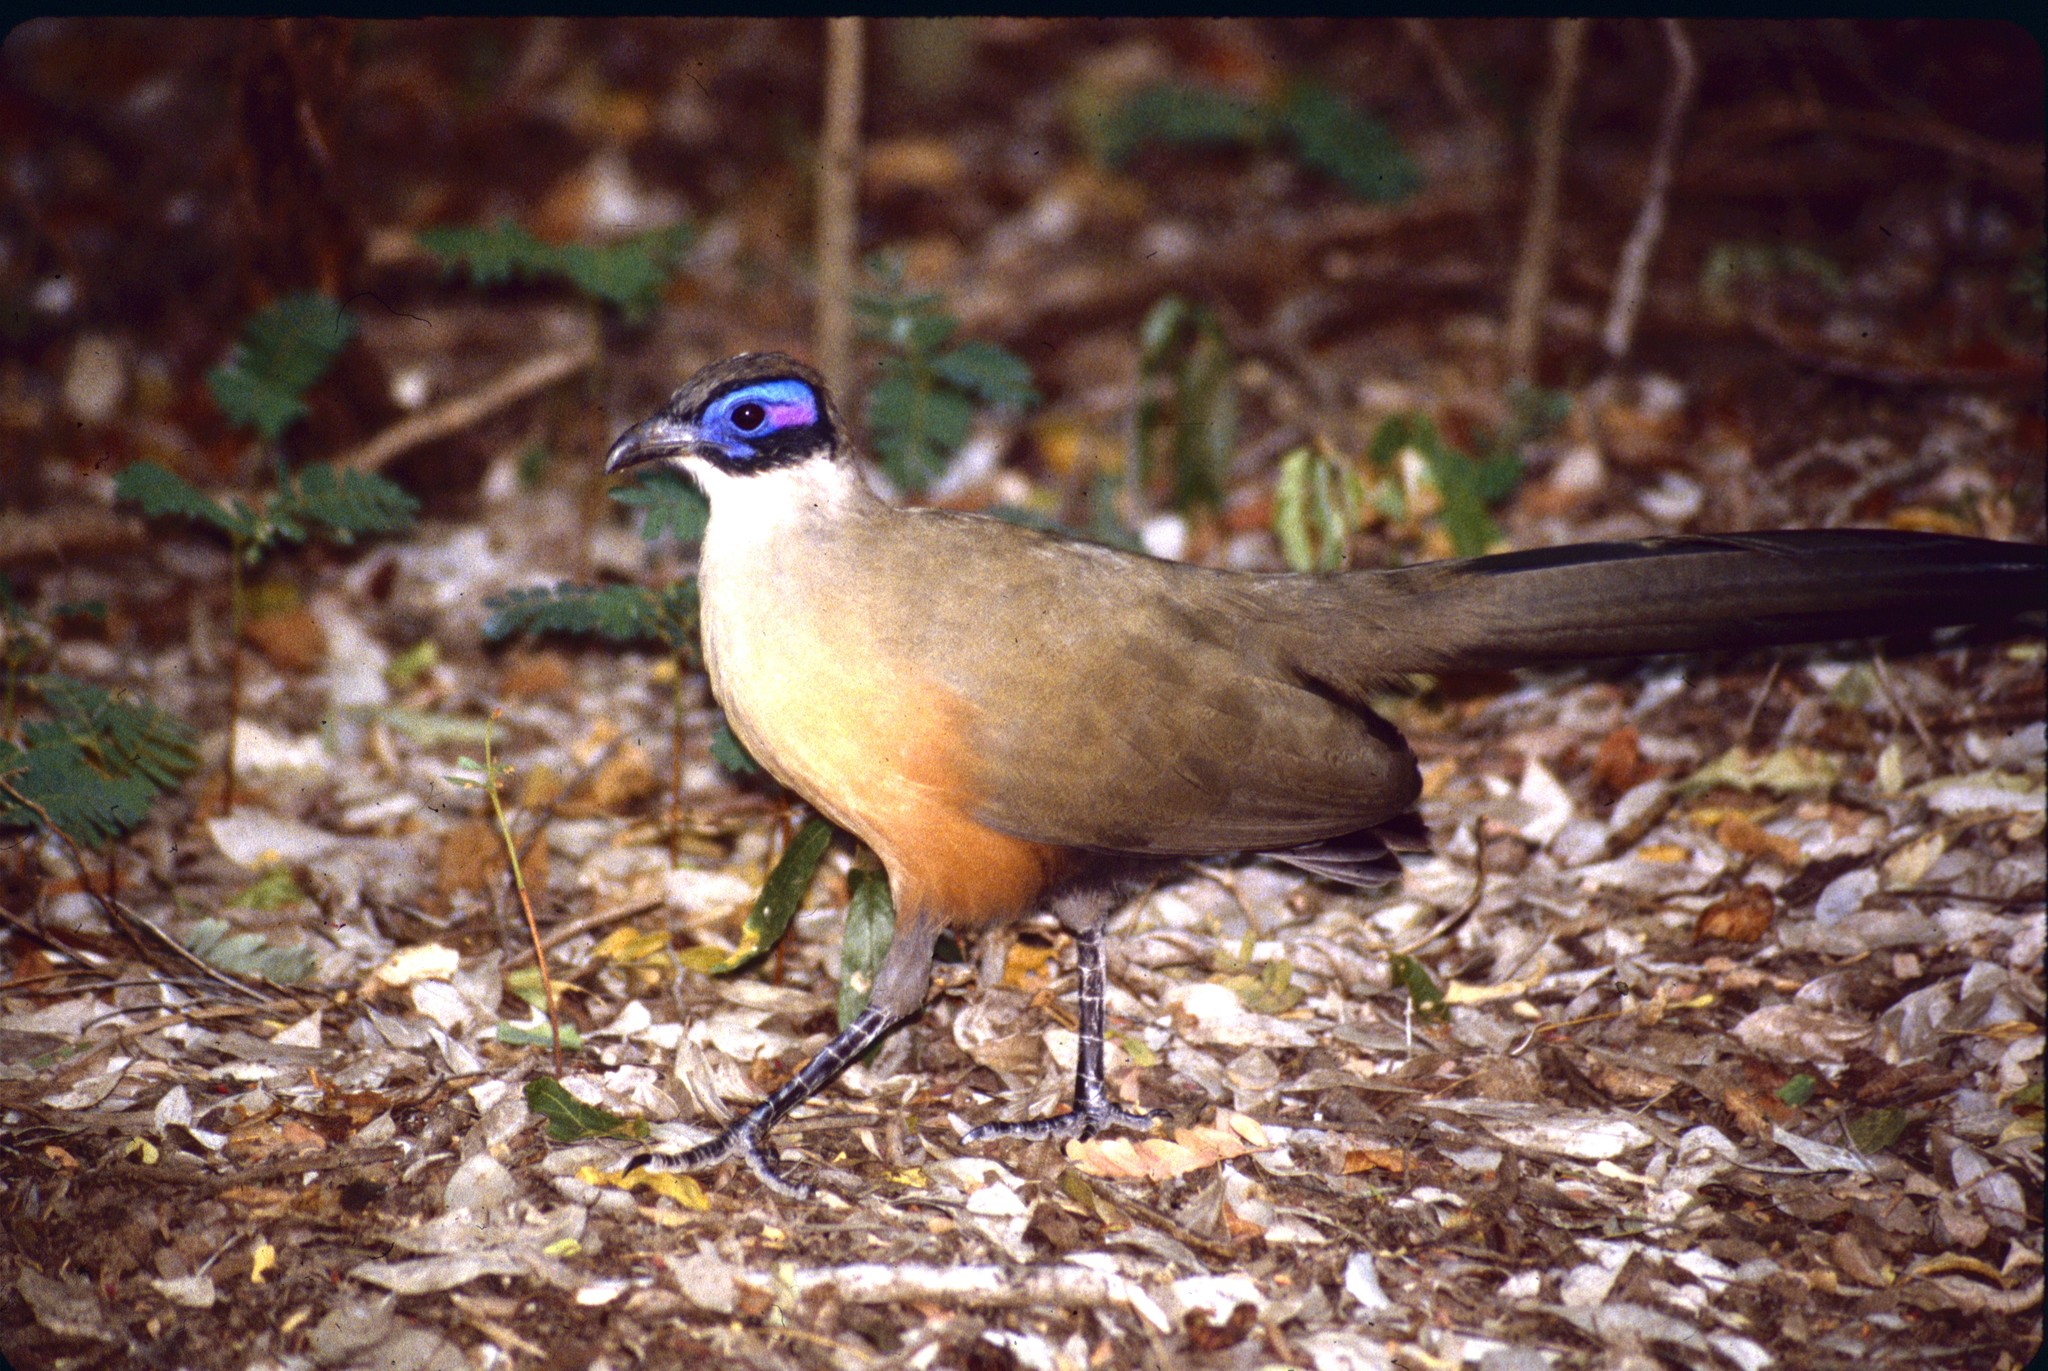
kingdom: Animalia
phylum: Chordata
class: Aves
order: Cuculiformes
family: Cuculidae
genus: Coua
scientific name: Coua gigas
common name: Giant coua
